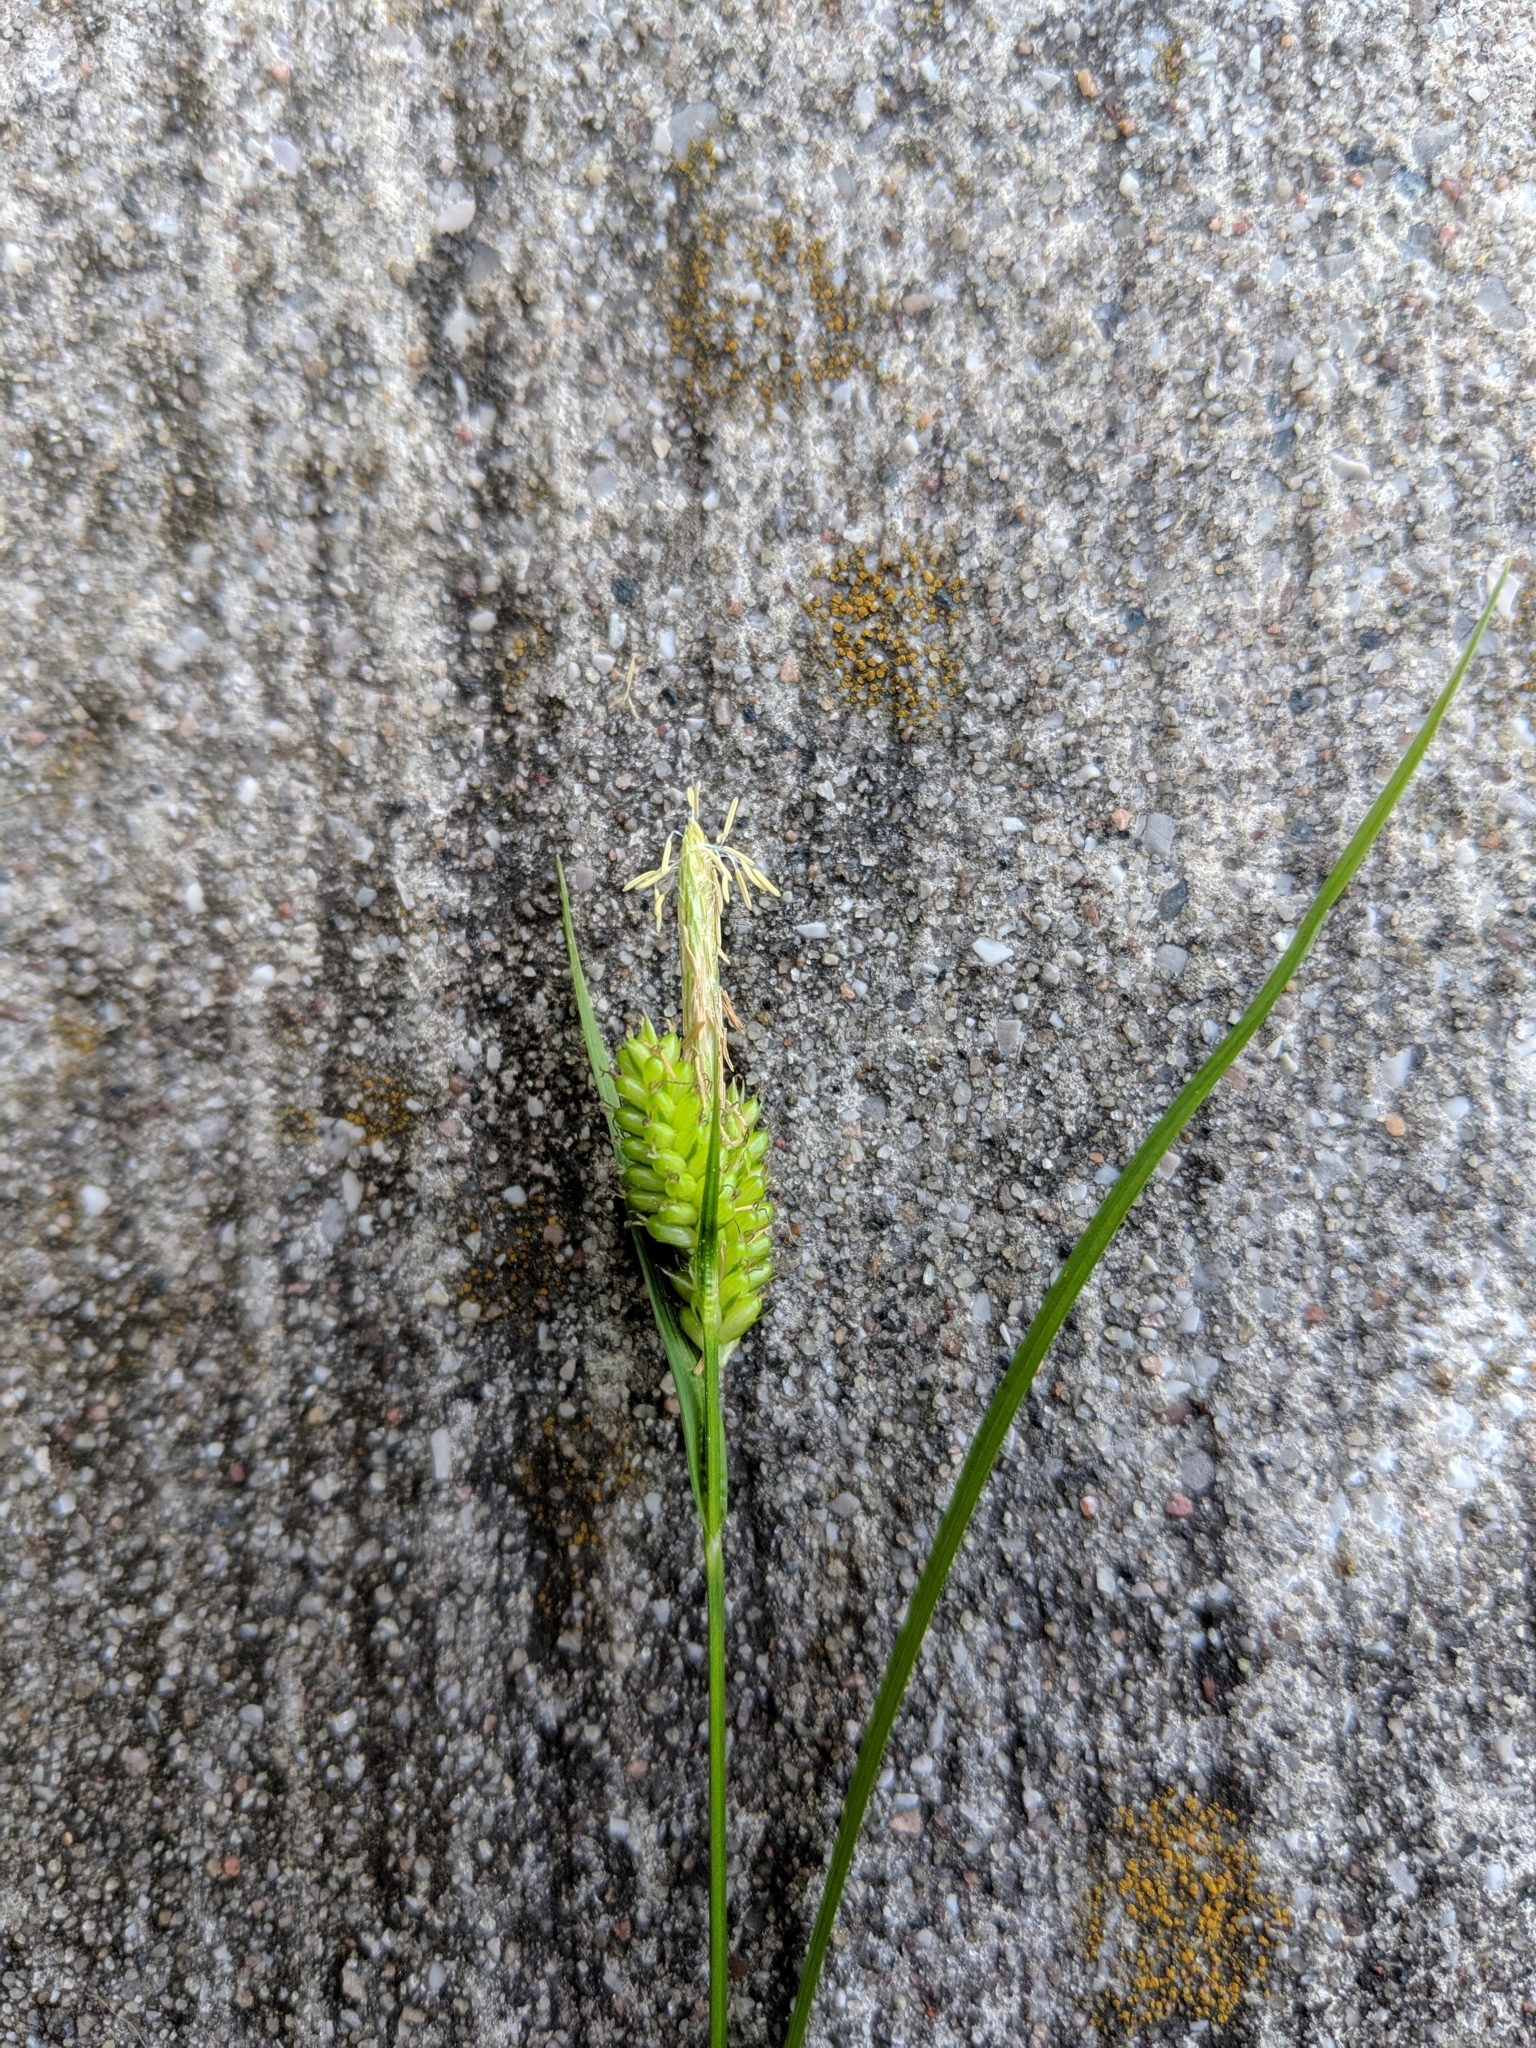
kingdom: Plantae
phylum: Tracheophyta
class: Liliopsida
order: Poales
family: Cyperaceae
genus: Carex
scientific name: Carex pallescens
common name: Pale sedge
